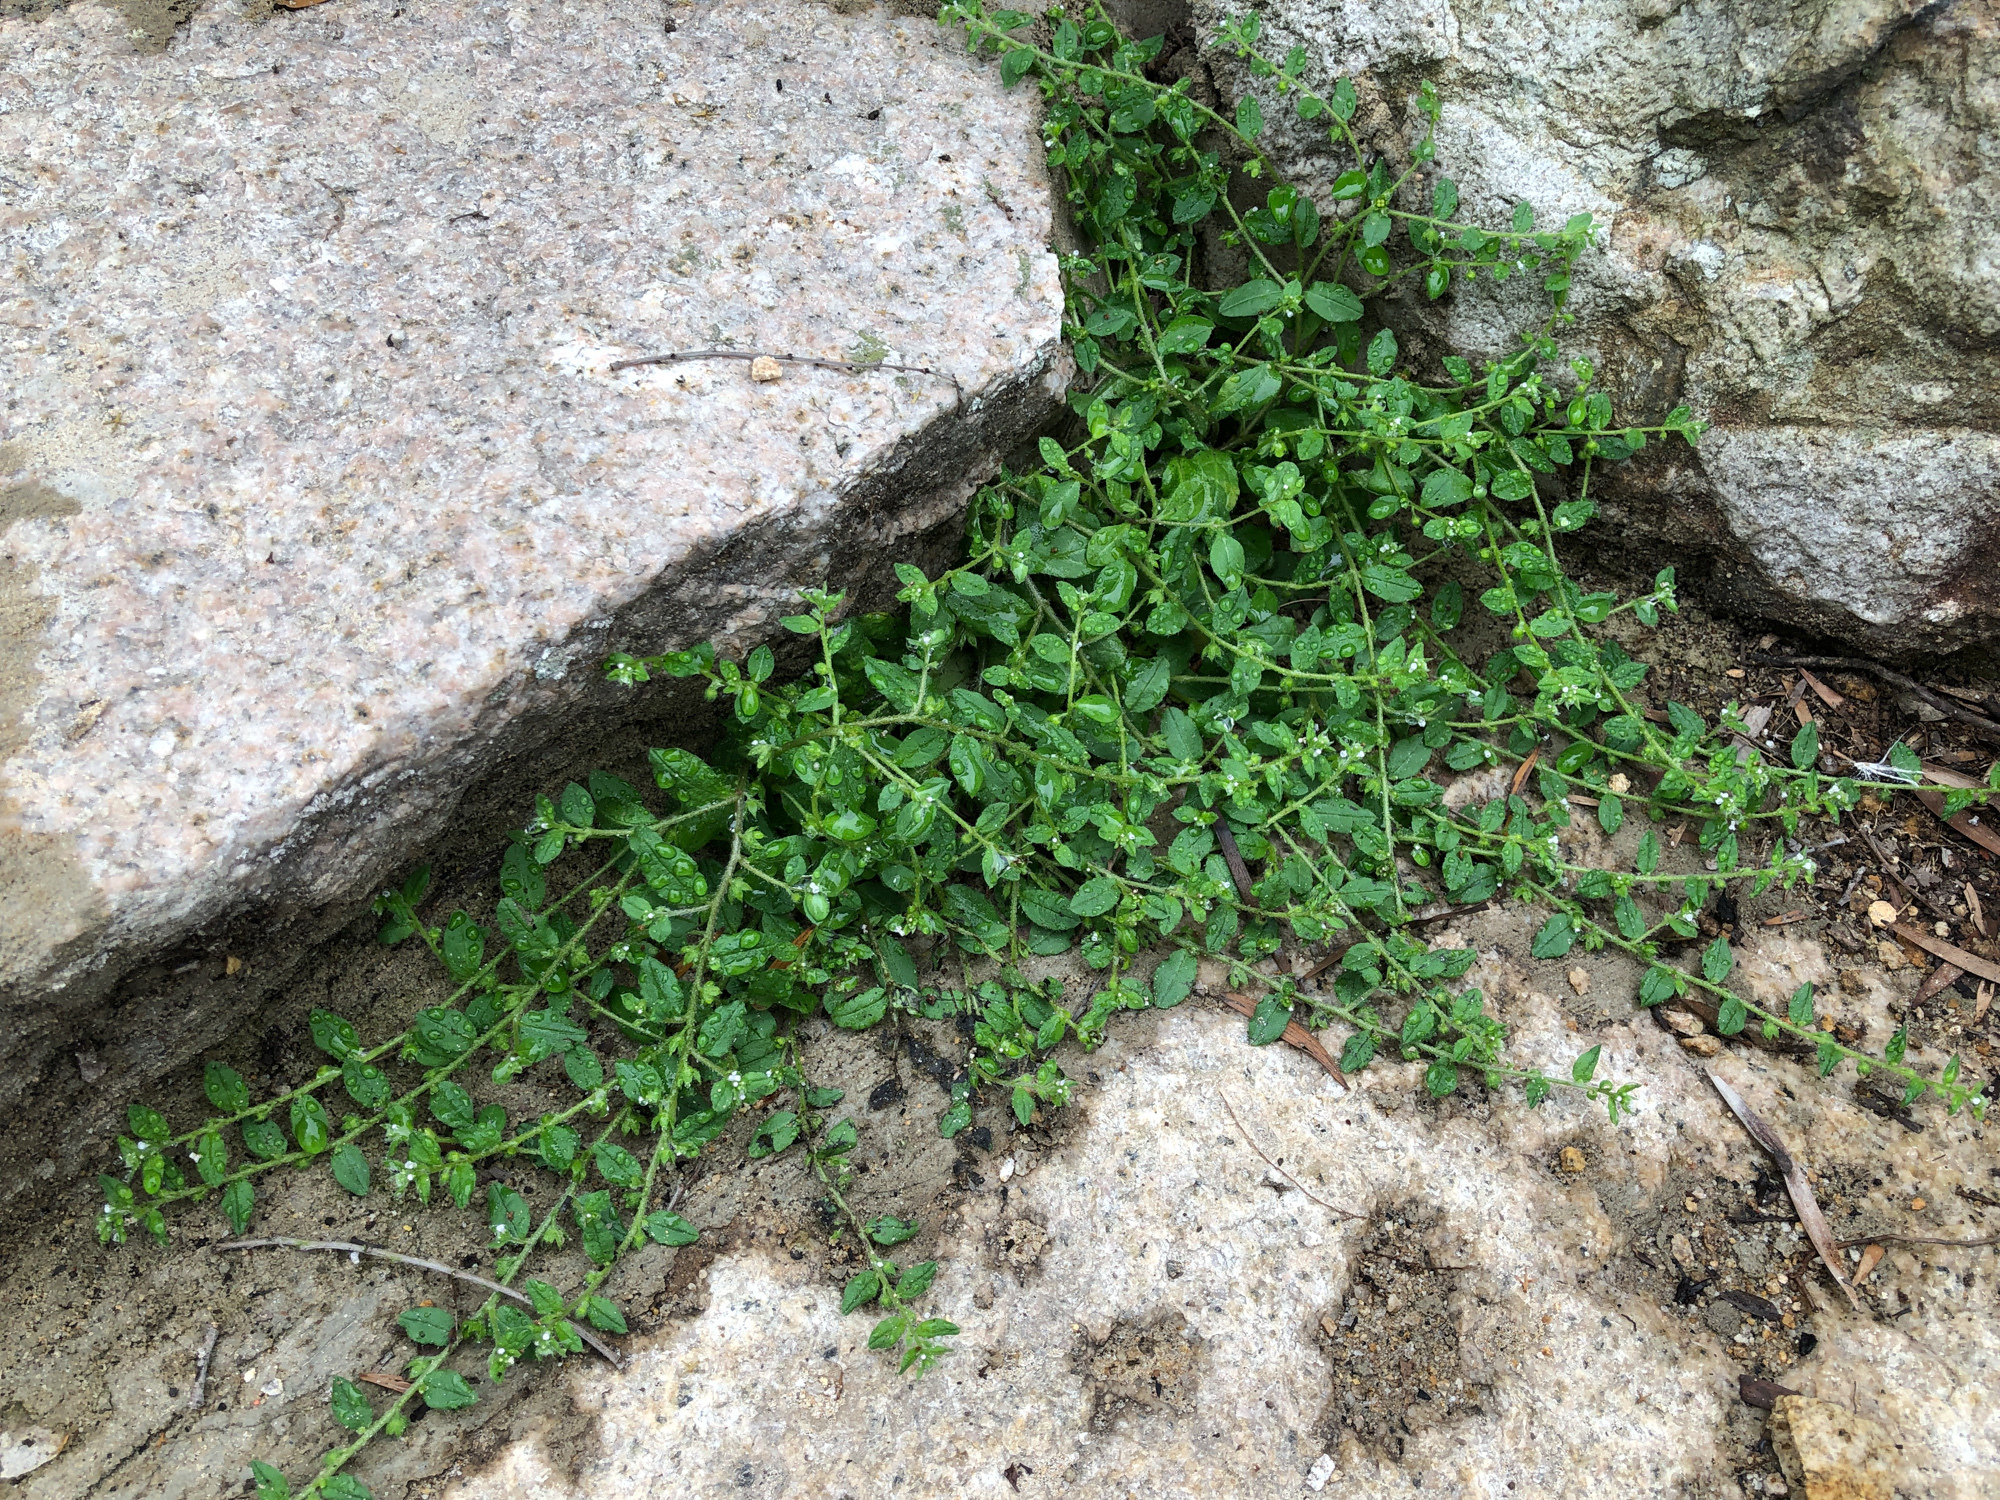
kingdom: Plantae
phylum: Tracheophyta
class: Magnoliopsida
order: Boraginales
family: Boraginaceae
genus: Bothriospermum
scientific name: Bothriospermum zeylanicum
